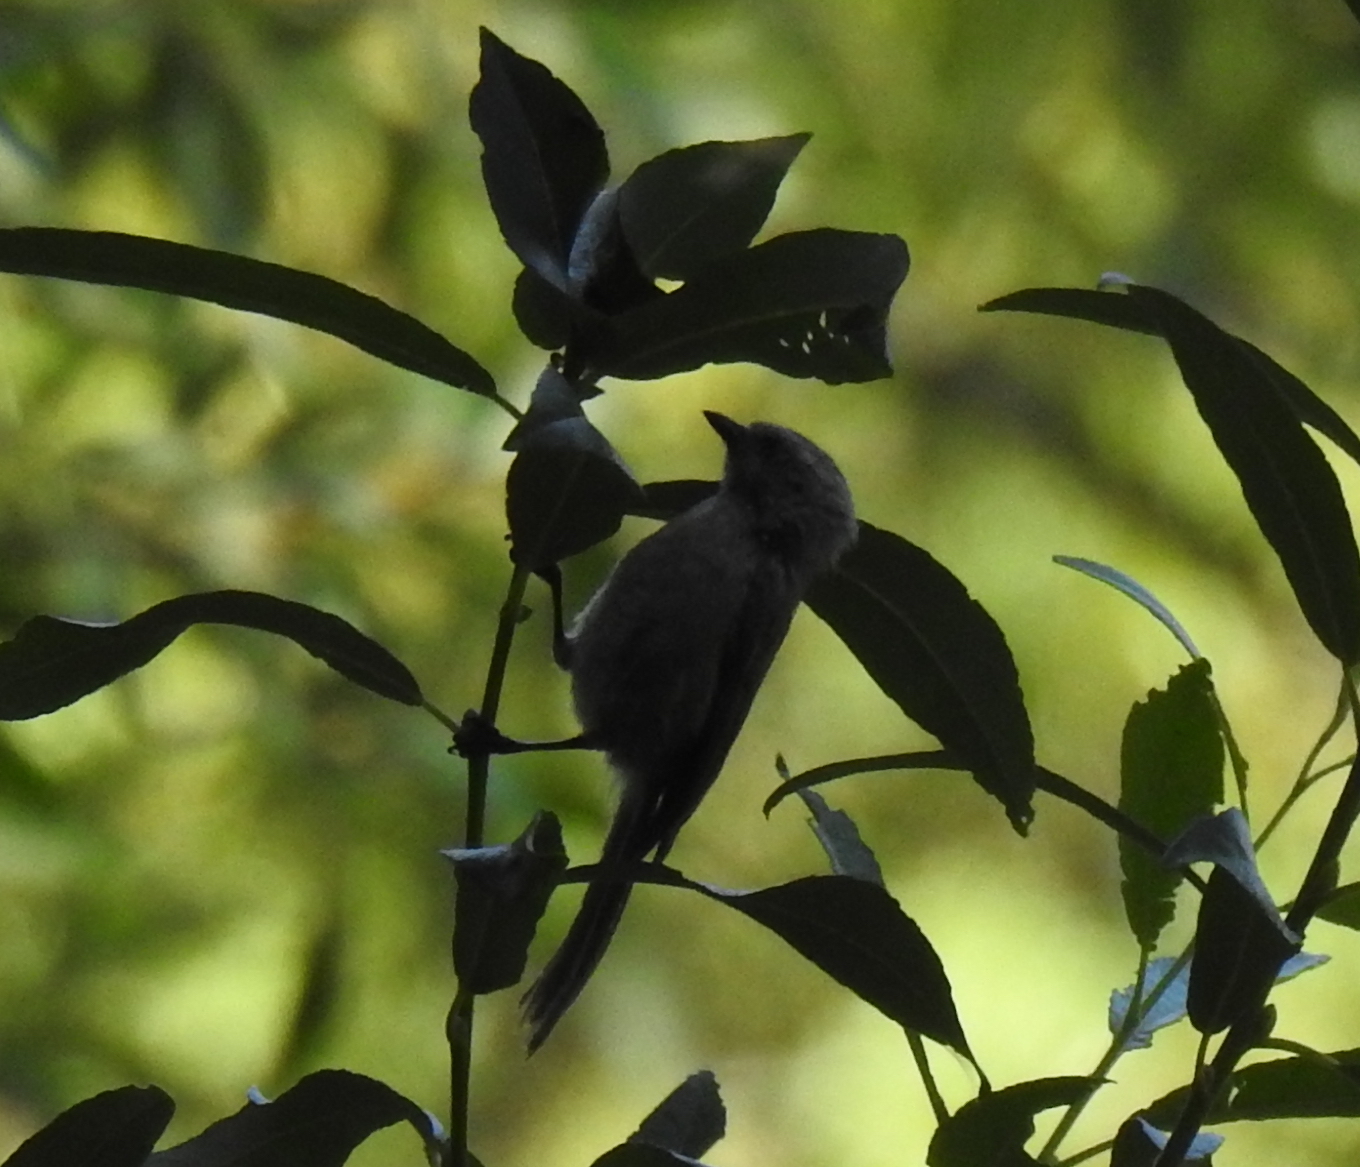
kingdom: Animalia
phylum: Chordata
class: Aves
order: Passeriformes
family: Aegithalidae
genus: Psaltriparus
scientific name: Psaltriparus minimus
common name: American bushtit
